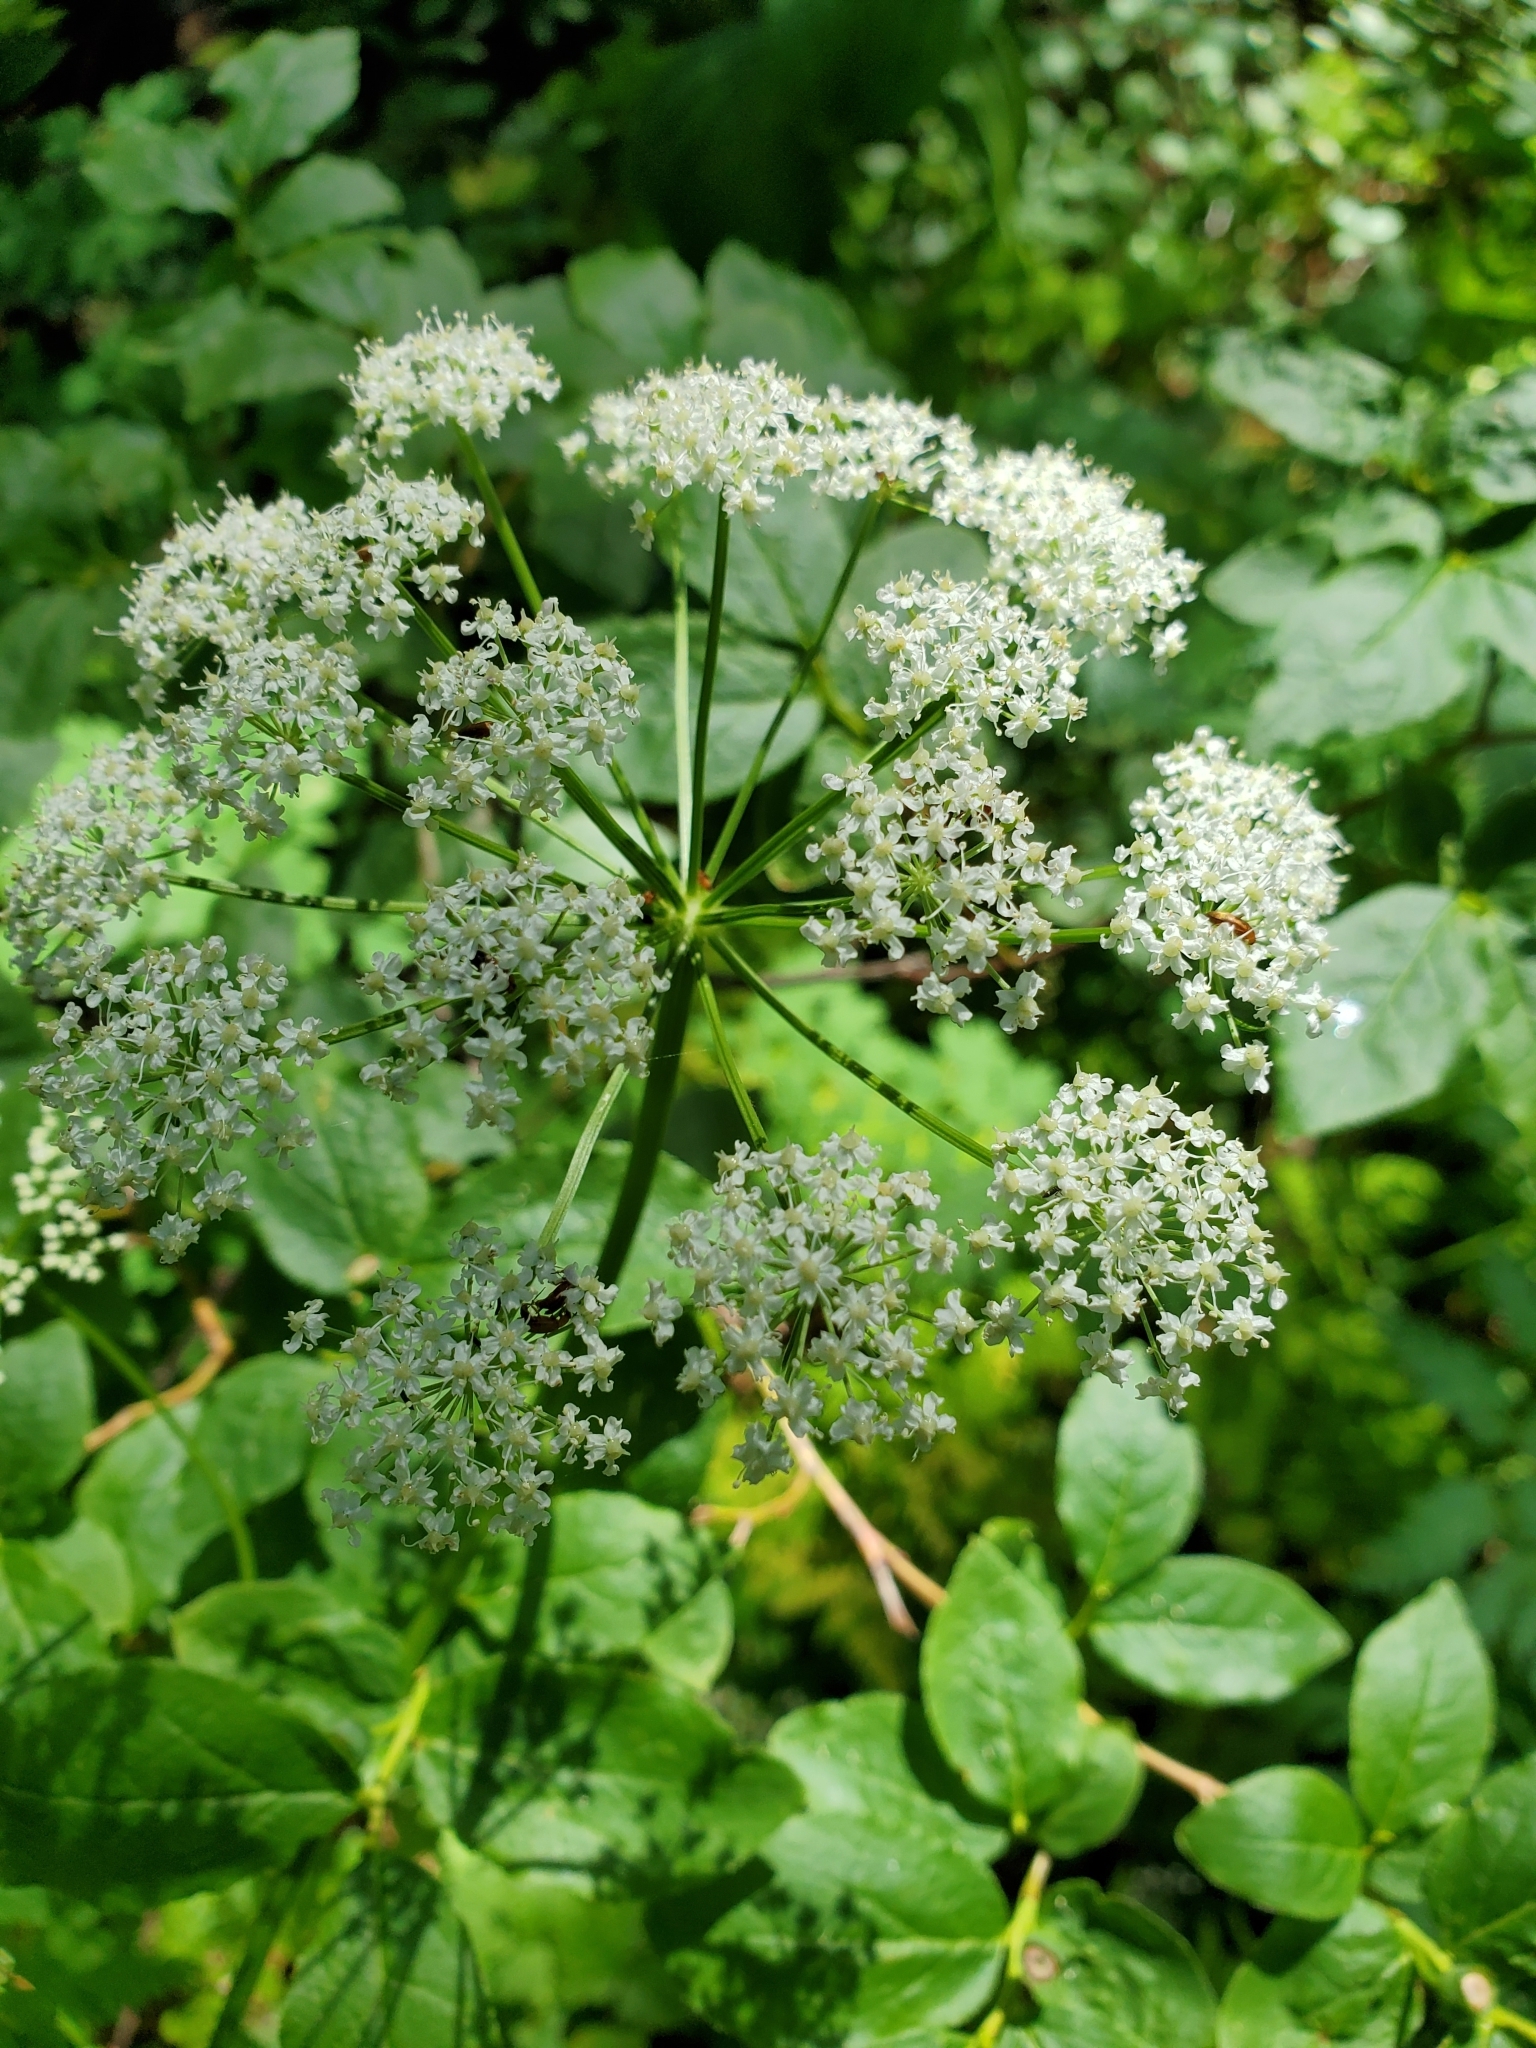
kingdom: Plantae
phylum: Tracheophyta
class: Magnoliopsida
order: Apiales
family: Apiaceae
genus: Ligusticum
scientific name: Ligusticum canbyi
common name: Canby’s licorice-root
